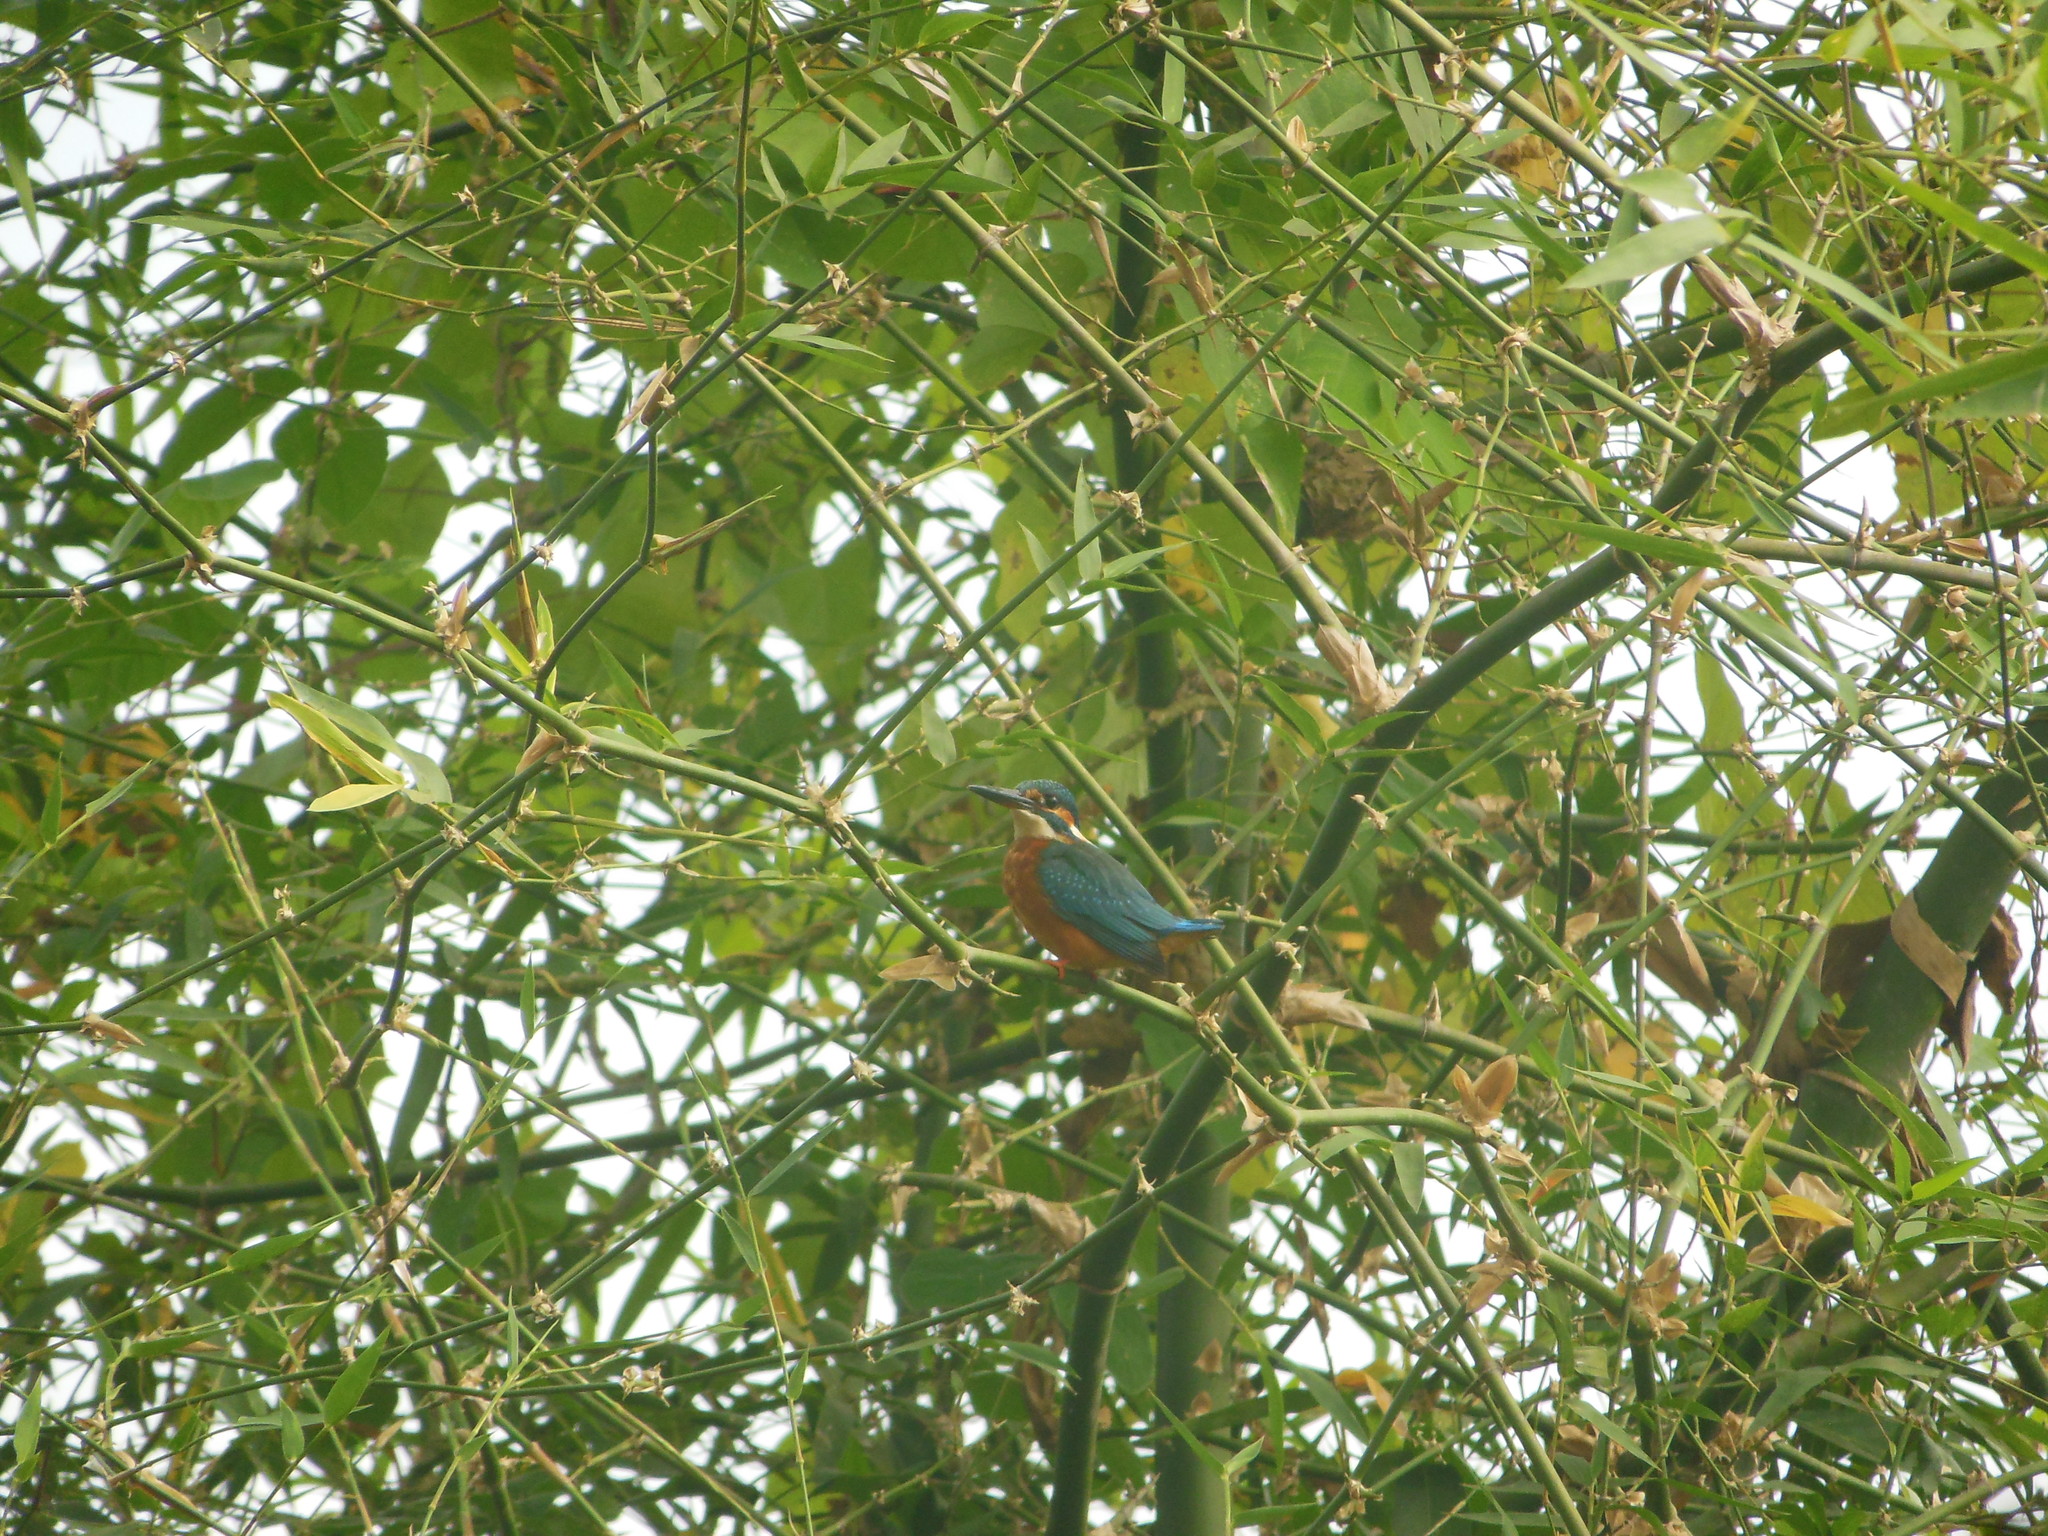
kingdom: Animalia
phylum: Chordata
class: Aves
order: Coraciiformes
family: Alcedinidae
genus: Alcedo
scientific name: Alcedo atthis
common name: Common kingfisher
